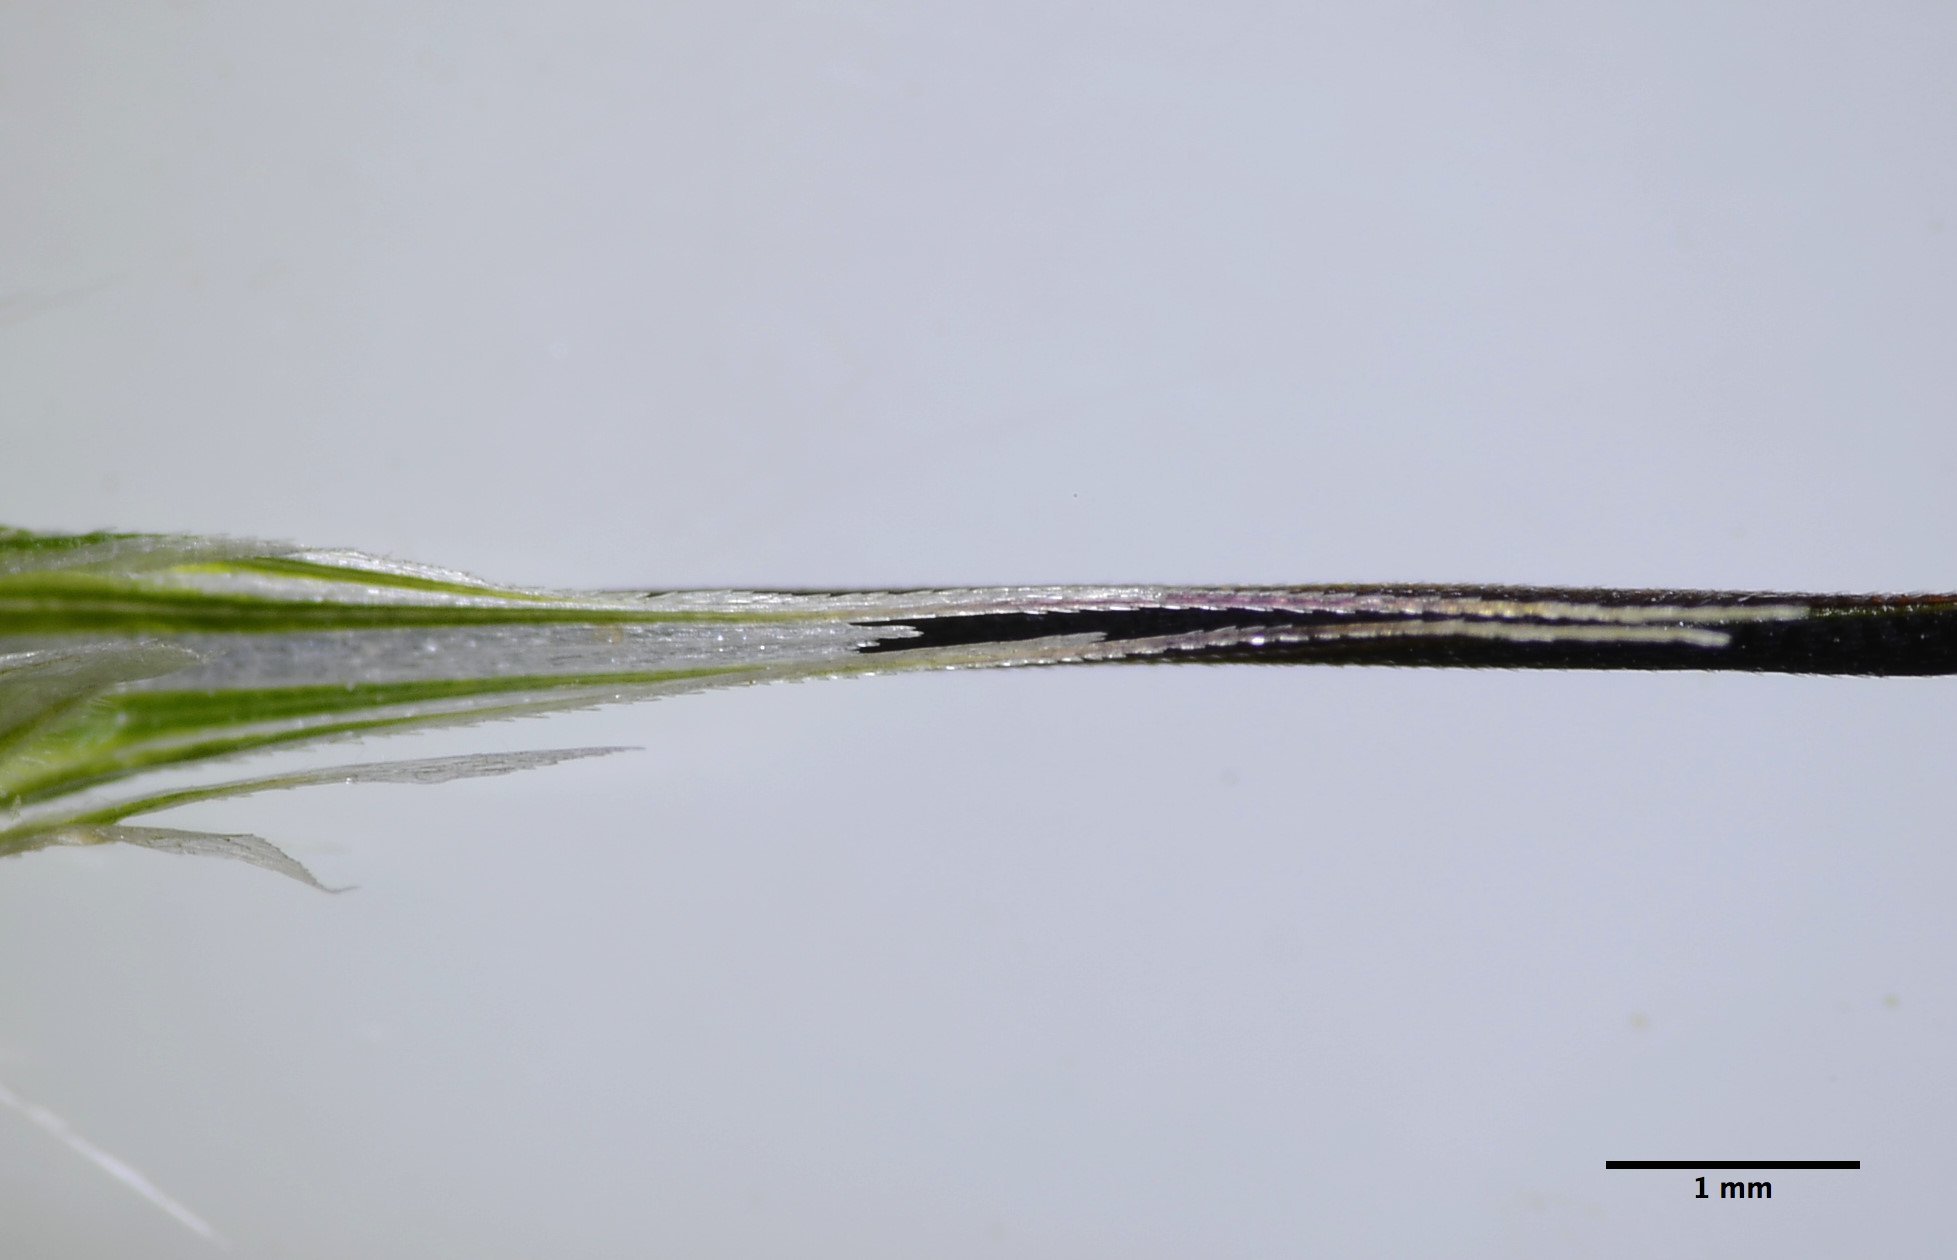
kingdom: Plantae
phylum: Tracheophyta
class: Liliopsida
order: Poales
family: Poaceae
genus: Avena
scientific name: Avena barbata
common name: Slender oat
